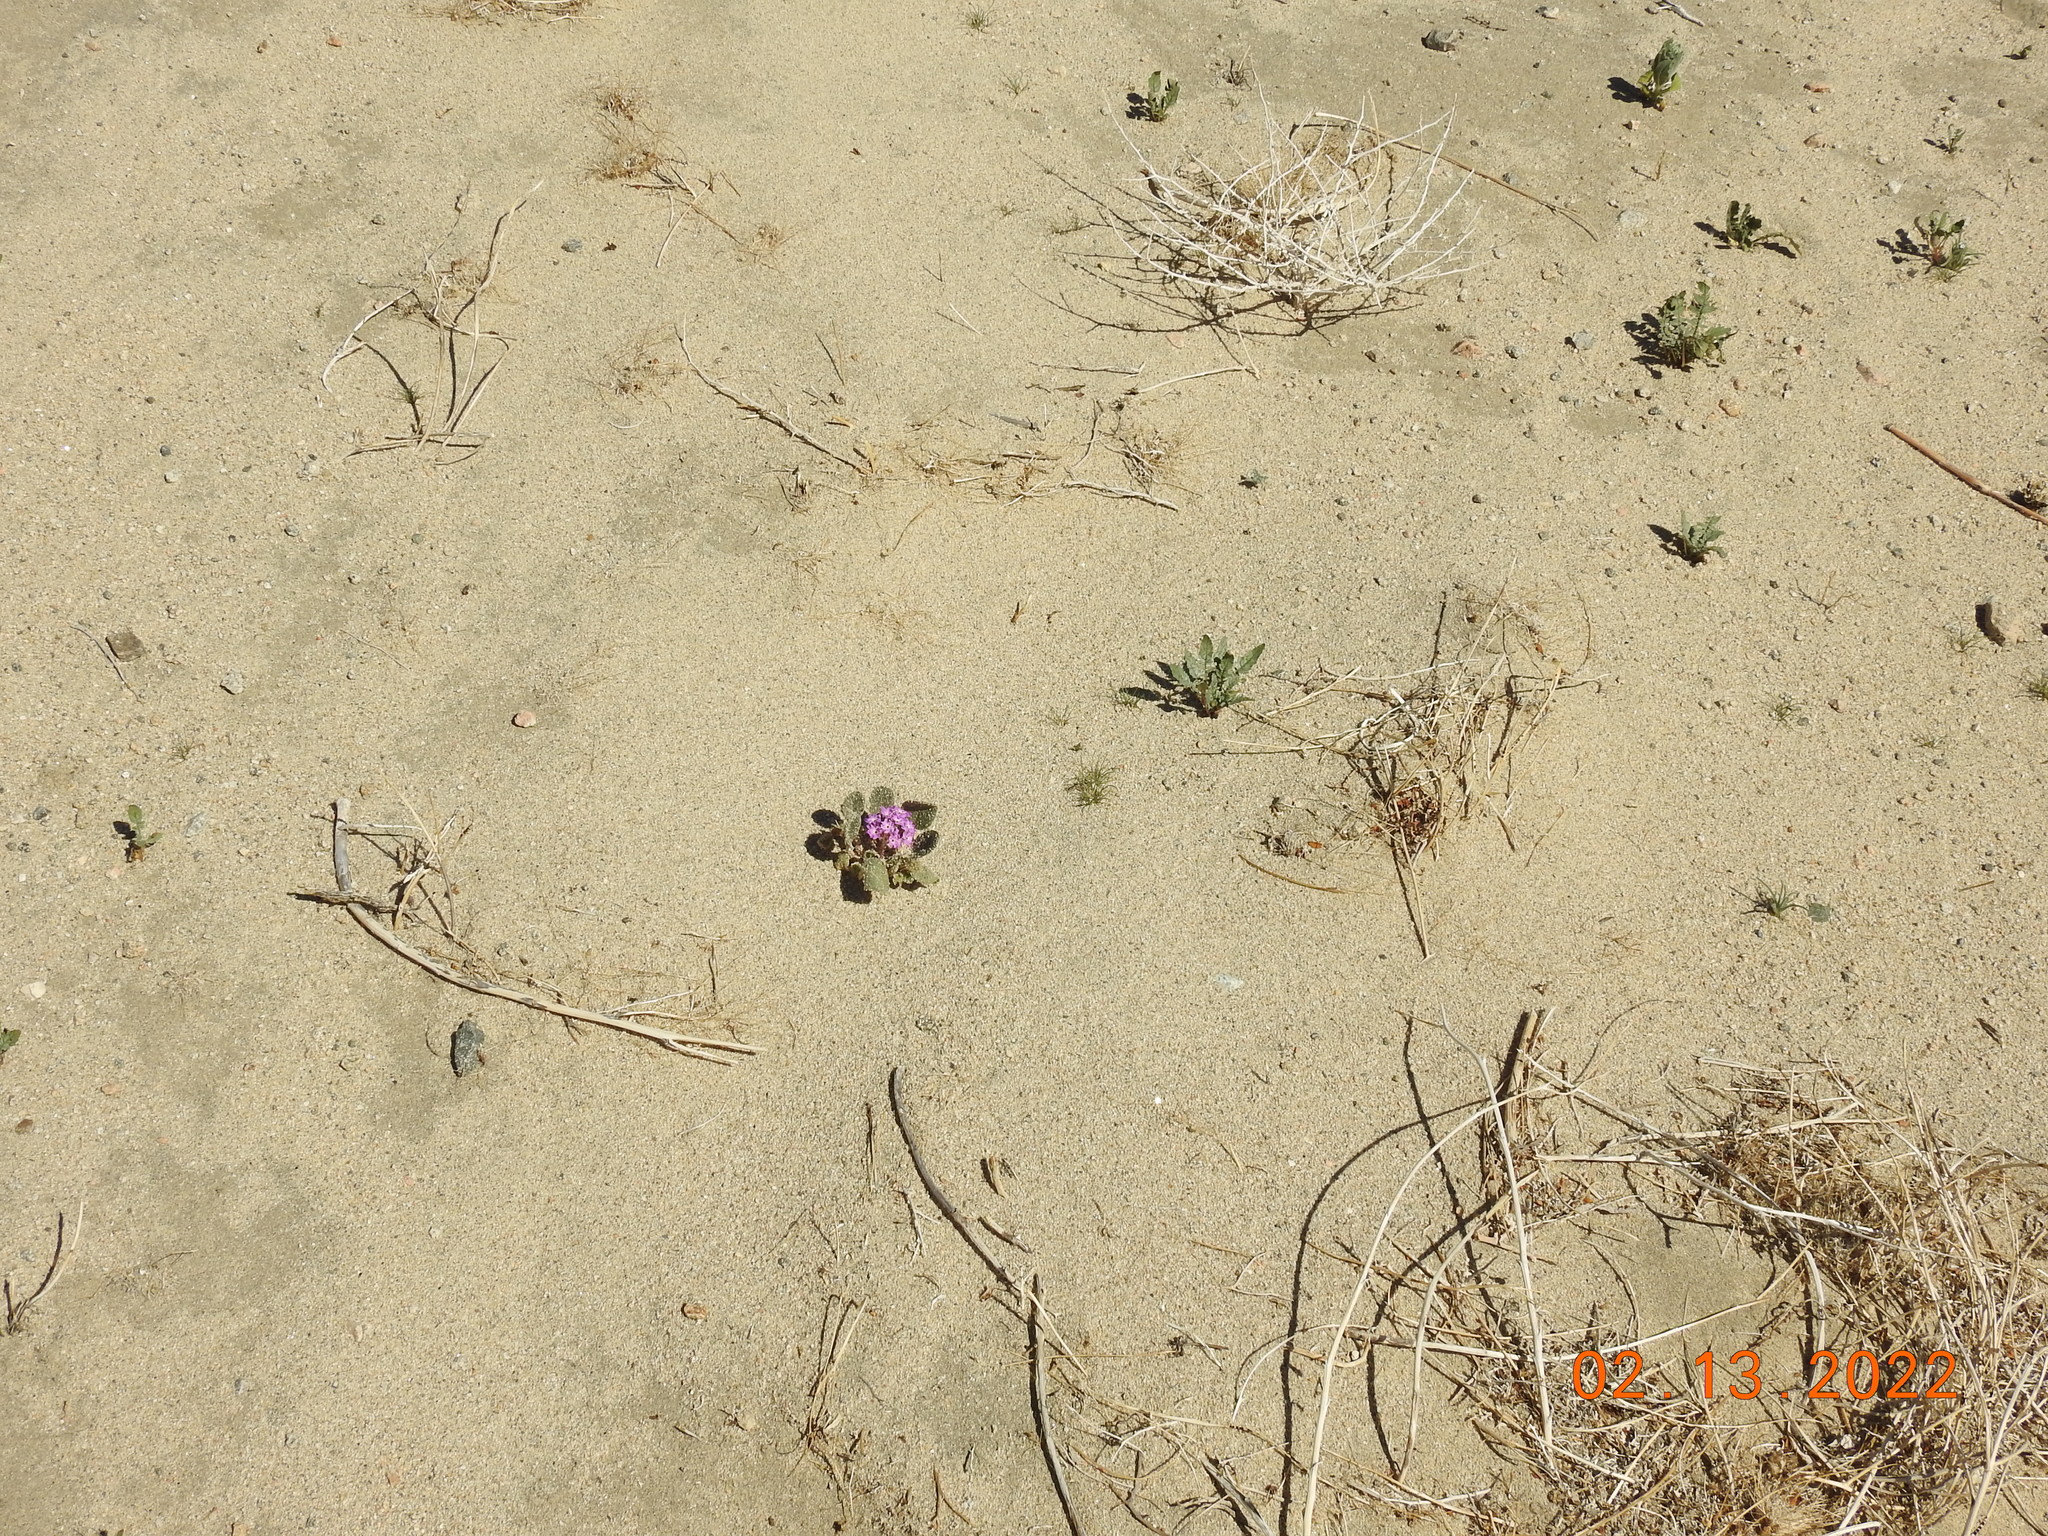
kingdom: Plantae
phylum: Tracheophyta
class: Magnoliopsida
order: Caryophyllales
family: Nyctaginaceae
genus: Abronia
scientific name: Abronia villosa
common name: Desert sand-verbena
